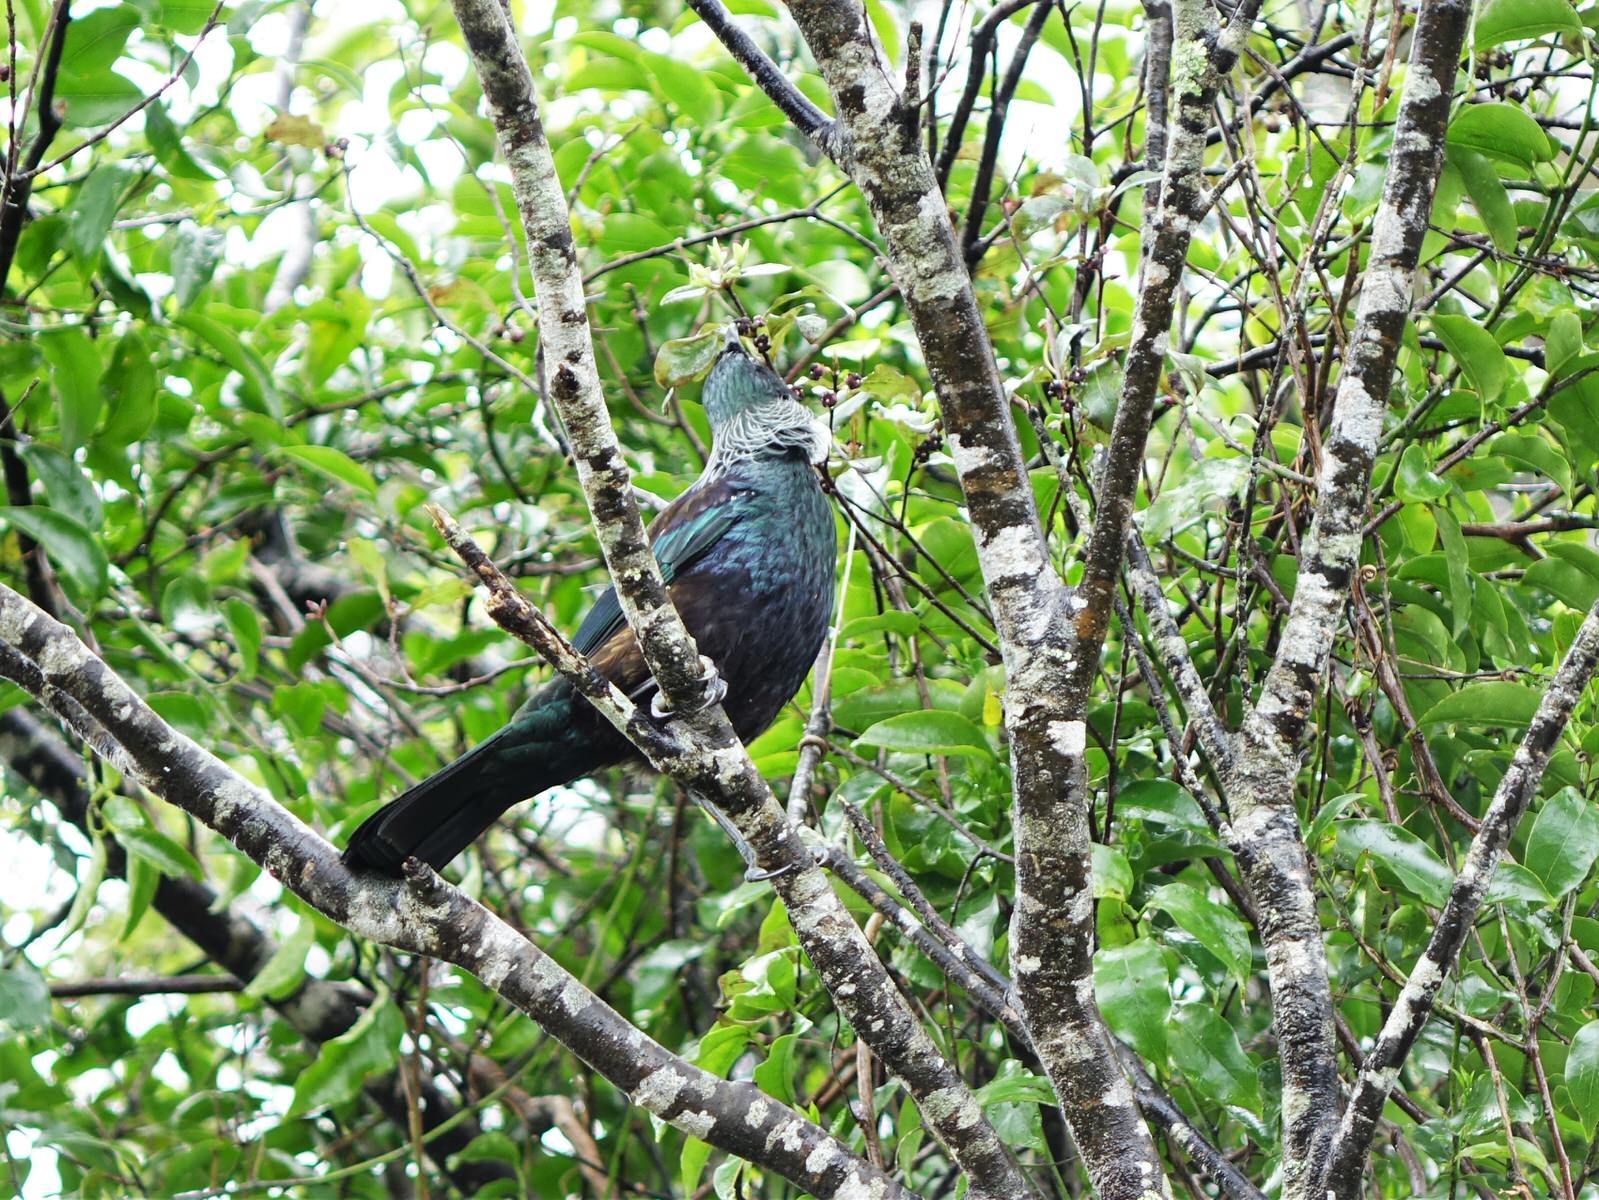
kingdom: Animalia
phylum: Chordata
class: Aves
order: Passeriformes
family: Meliphagidae
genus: Prosthemadera
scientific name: Prosthemadera novaeseelandiae
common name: Tui
